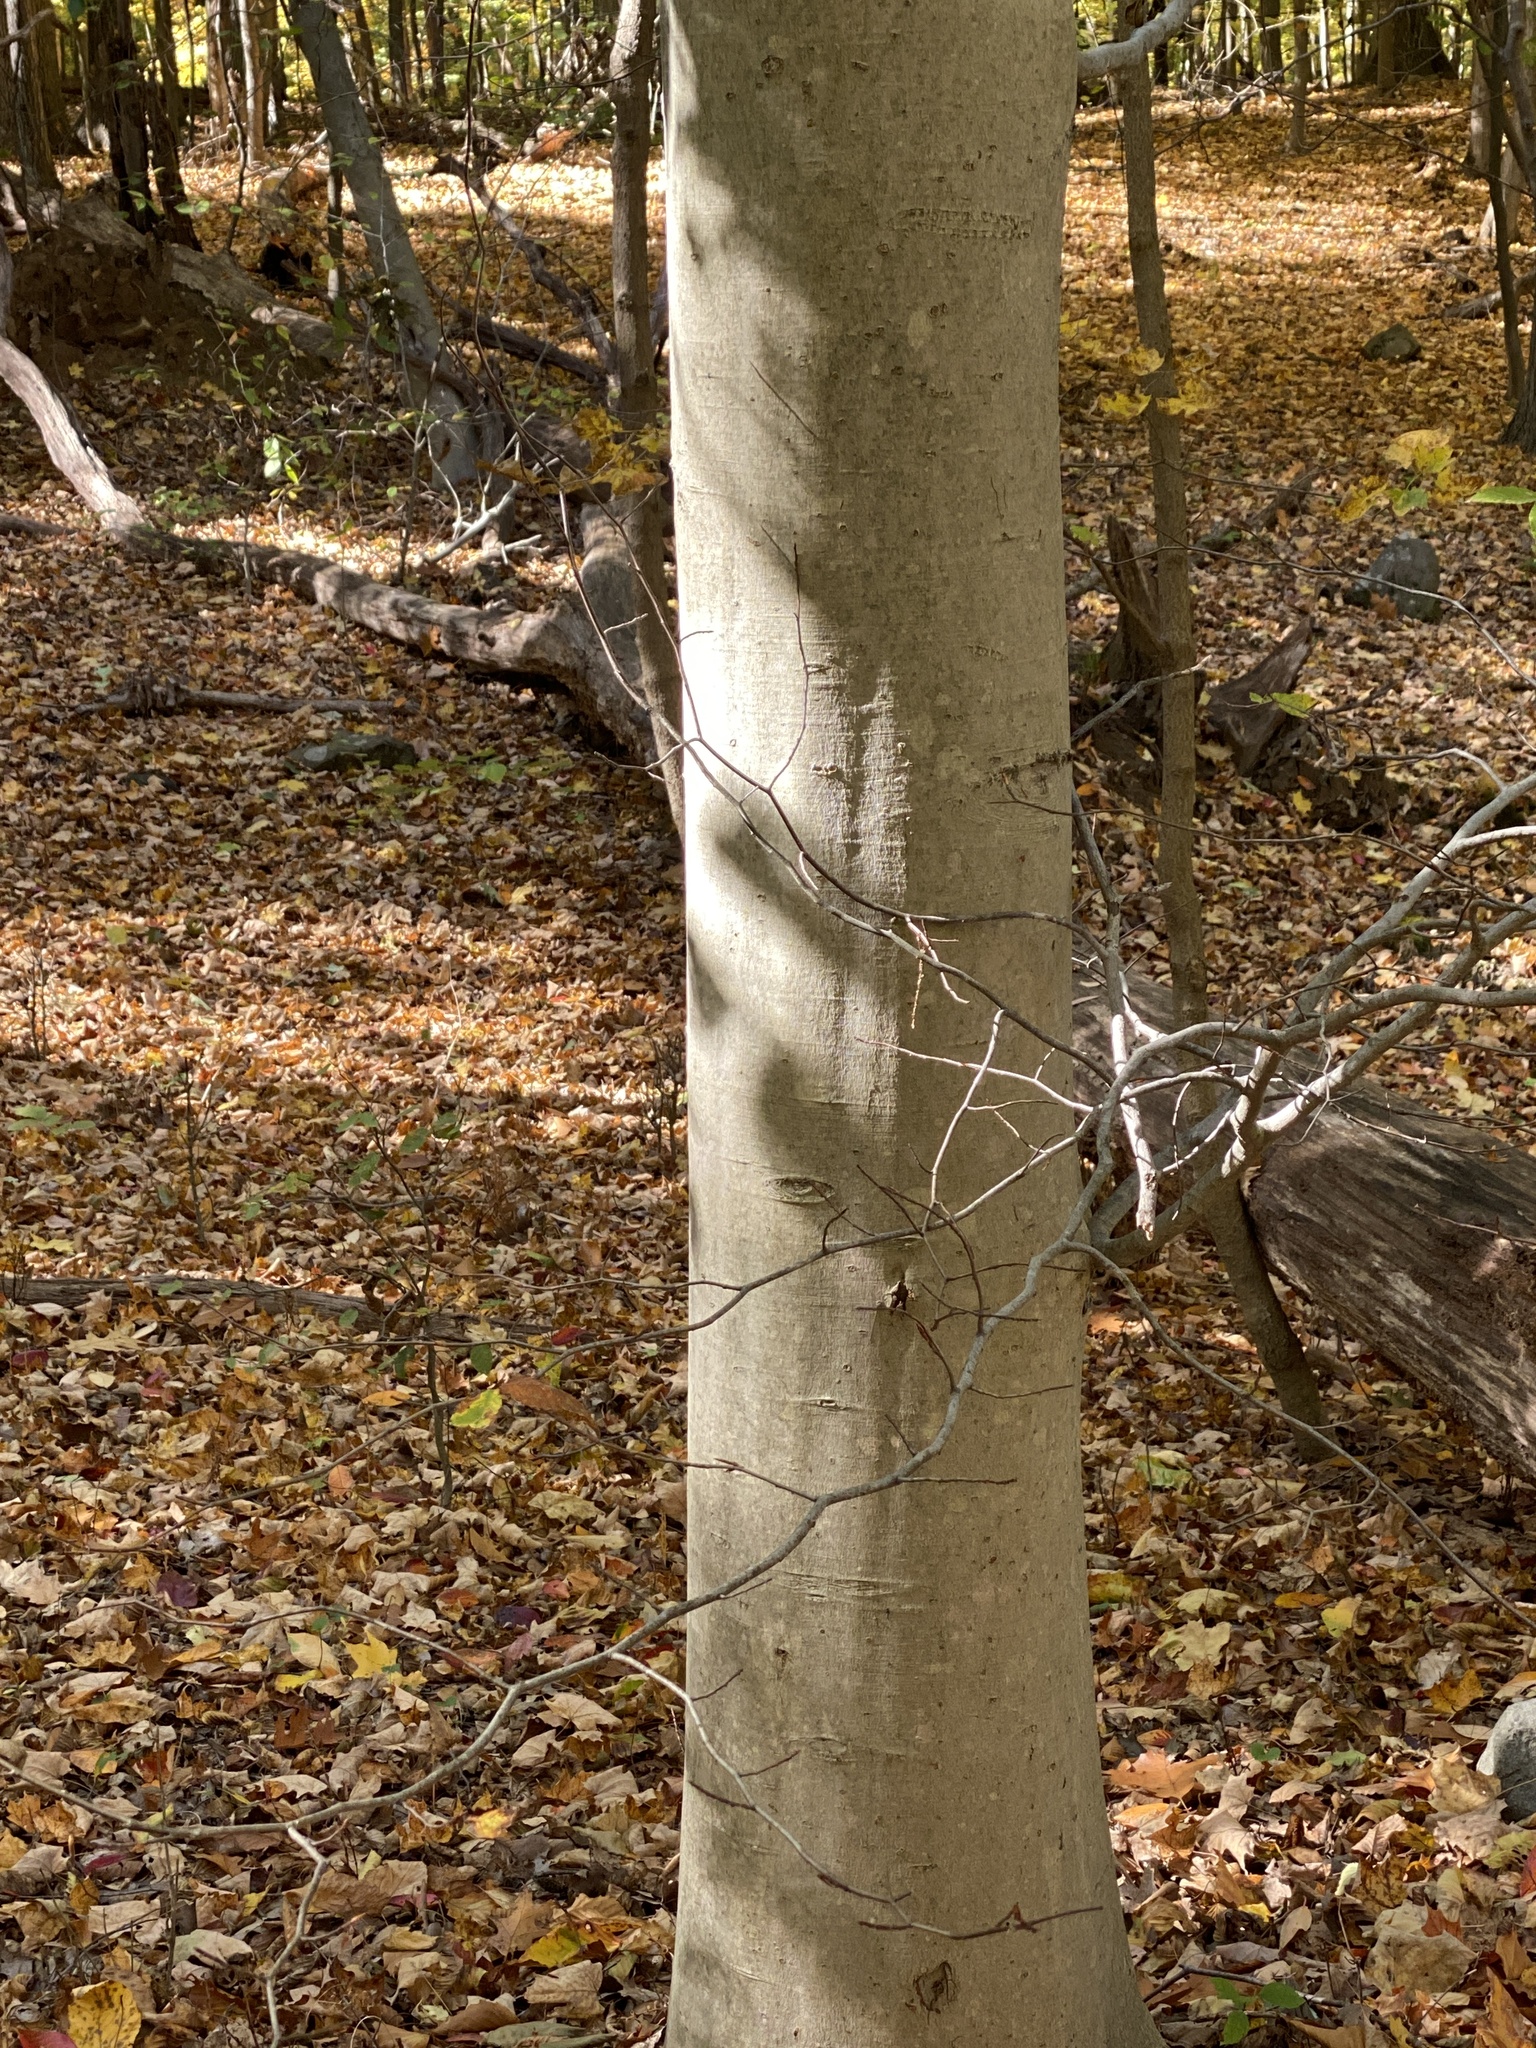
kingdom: Plantae
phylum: Tracheophyta
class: Magnoliopsida
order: Fagales
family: Fagaceae
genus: Fagus
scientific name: Fagus grandifolia
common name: American beech
